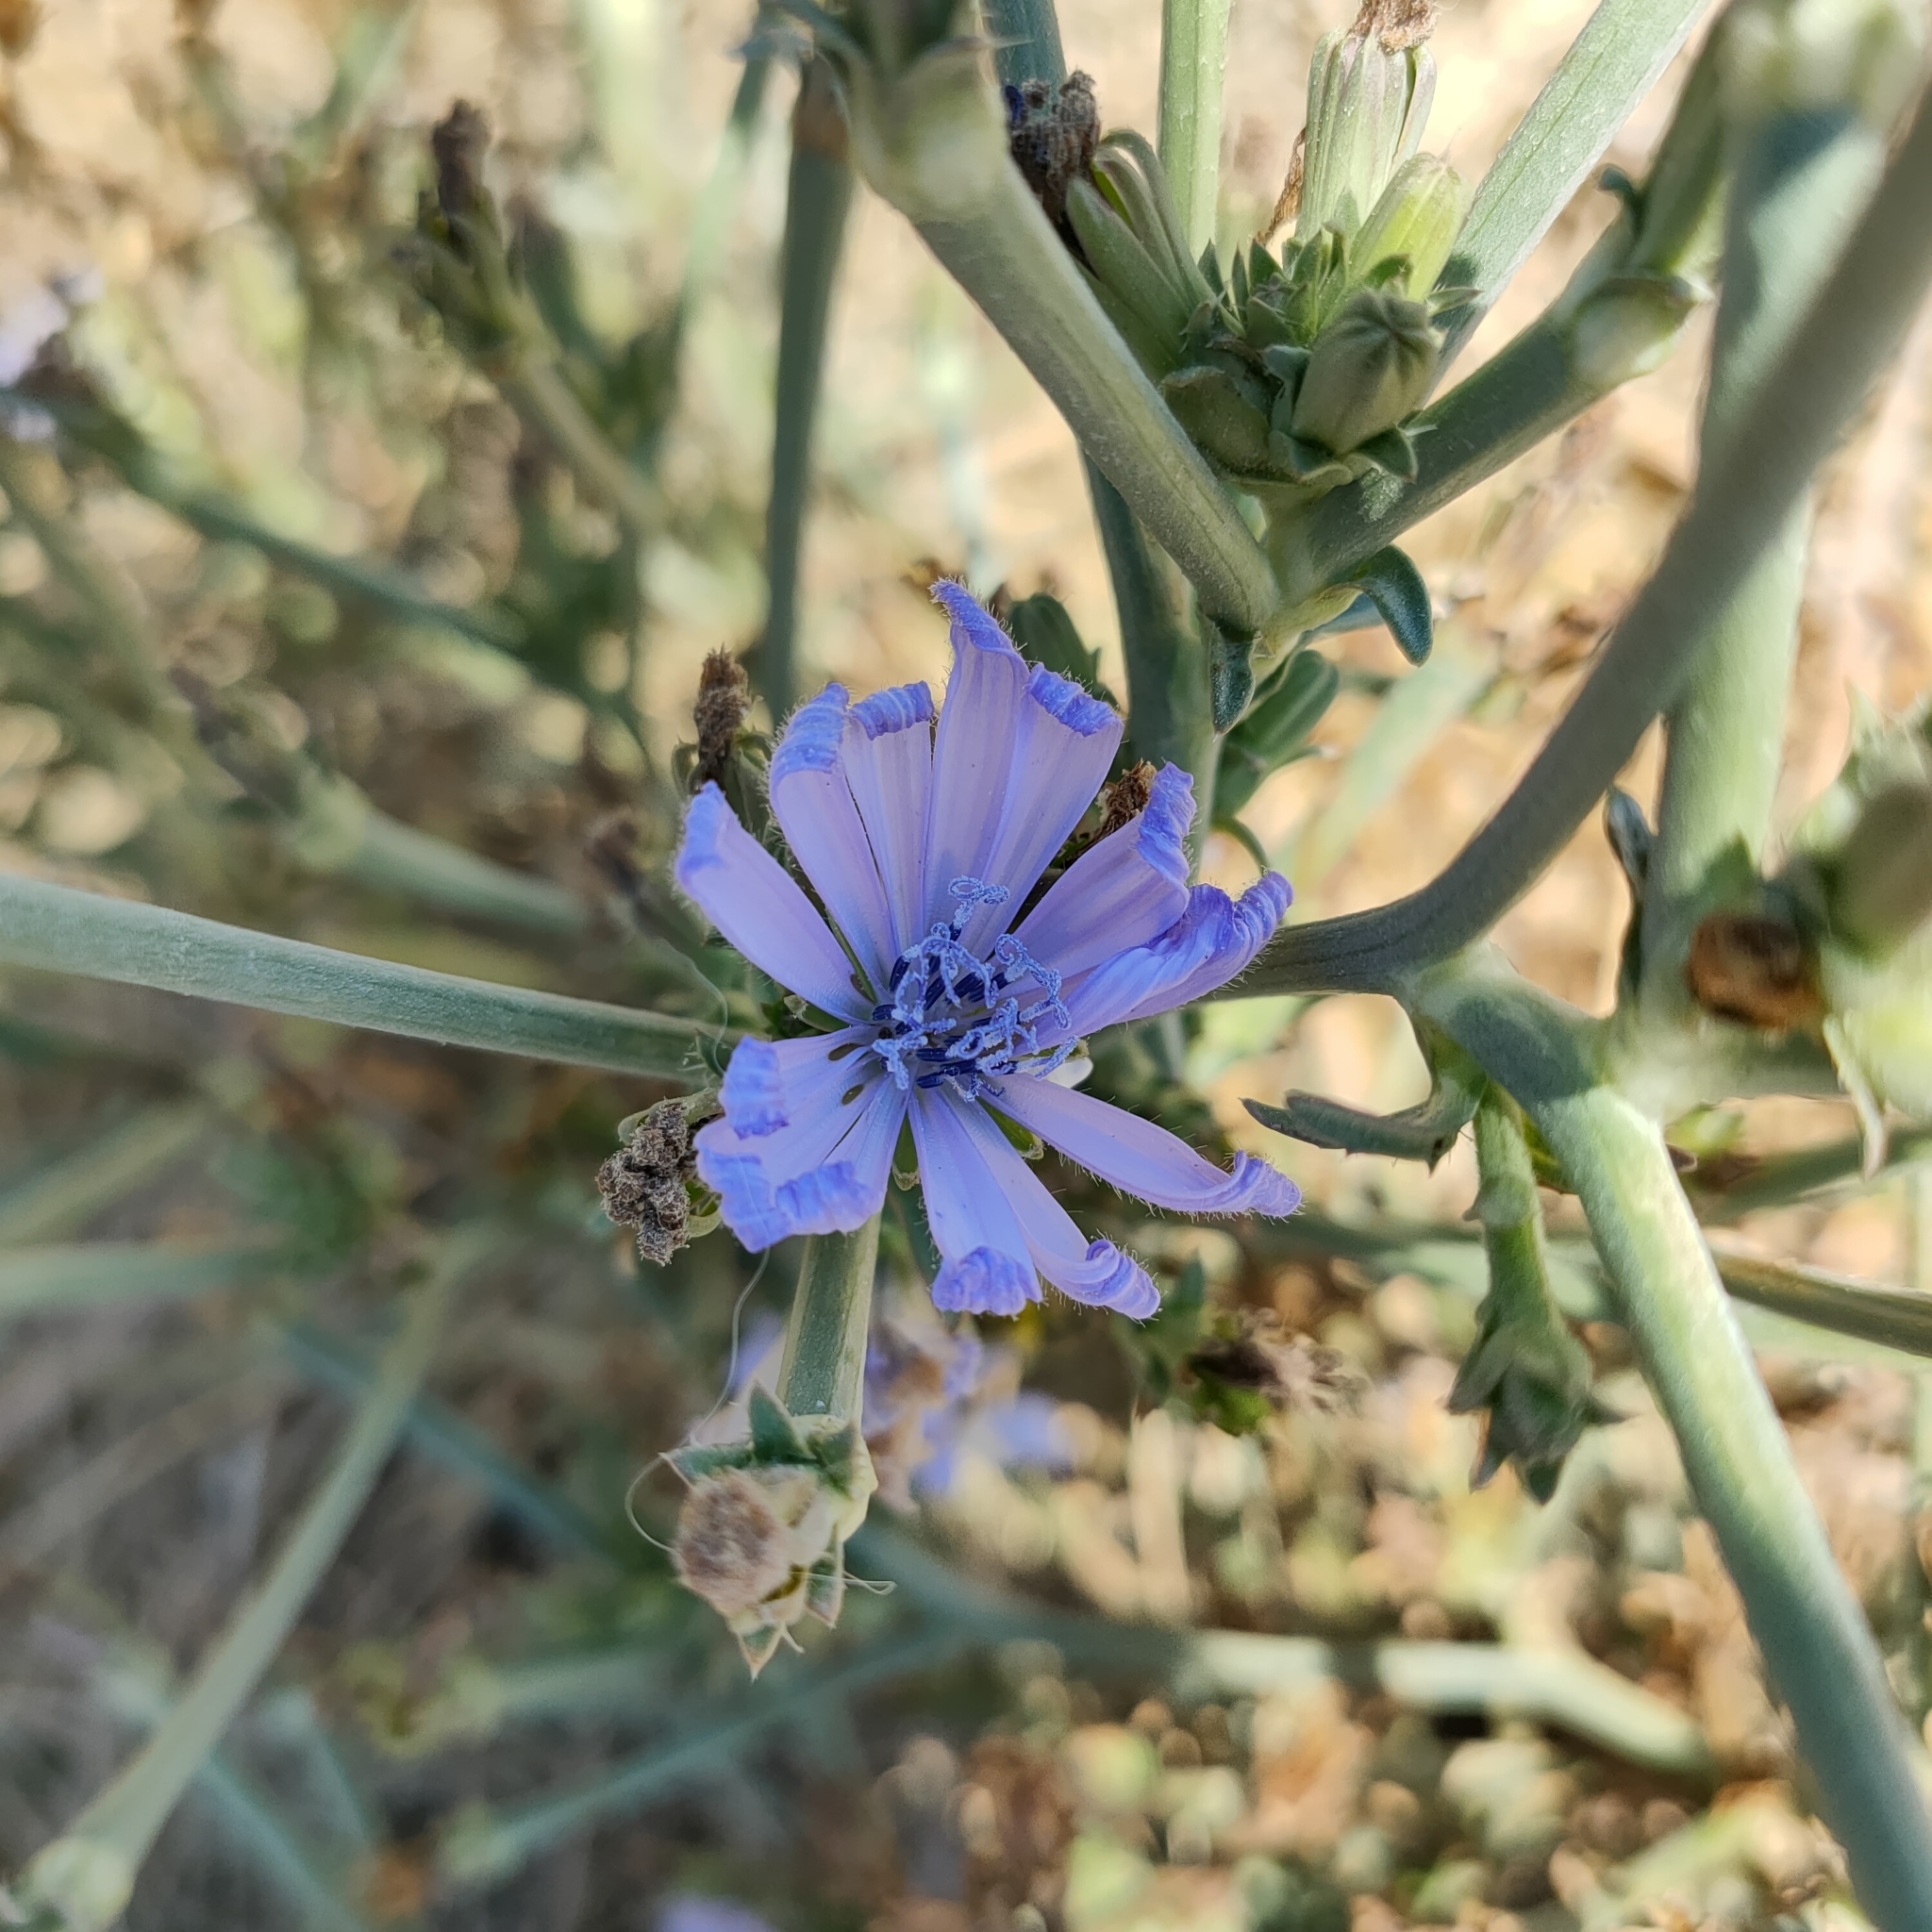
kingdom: Plantae
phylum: Tracheophyta
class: Magnoliopsida
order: Asterales
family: Asteraceae
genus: Cichorium
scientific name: Cichorium intybus
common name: Chicory
